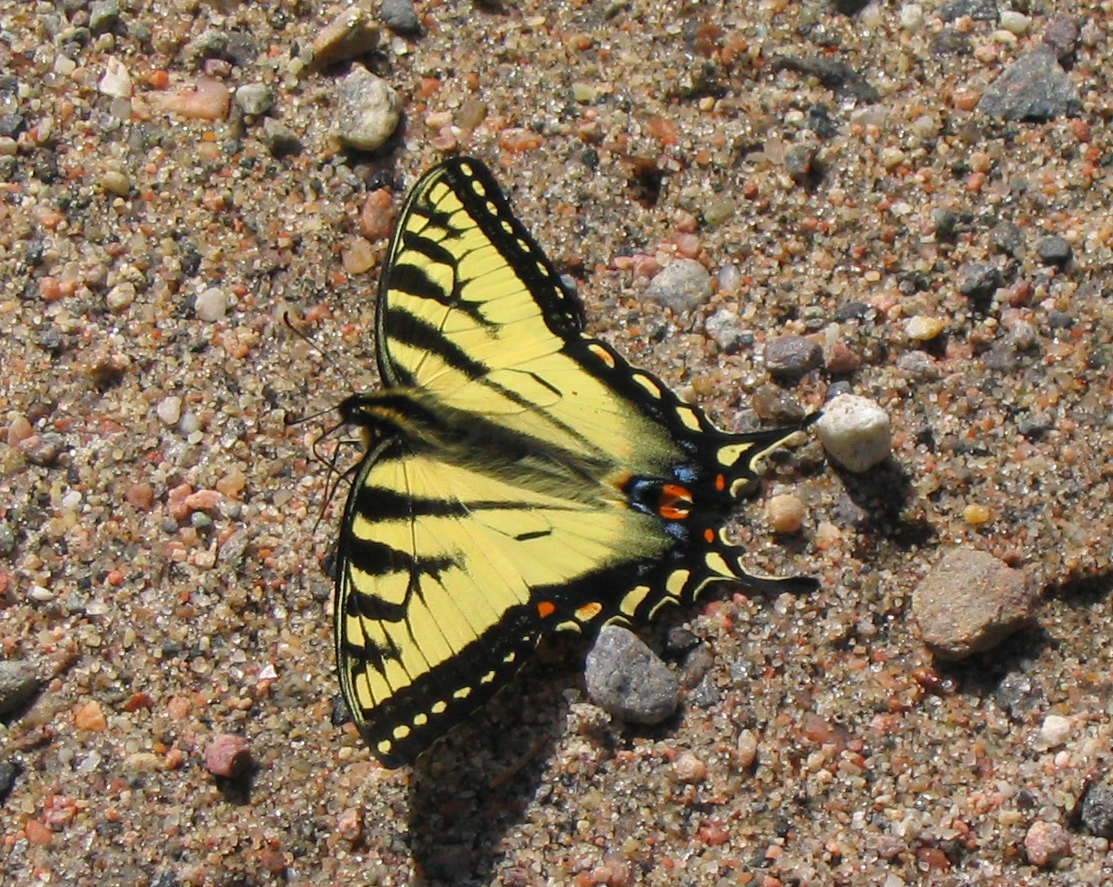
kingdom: Animalia
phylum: Arthropoda
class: Insecta
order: Lepidoptera
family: Papilionidae
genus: Papilio
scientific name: Papilio canadensis
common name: Canadian tiger swallowtail
